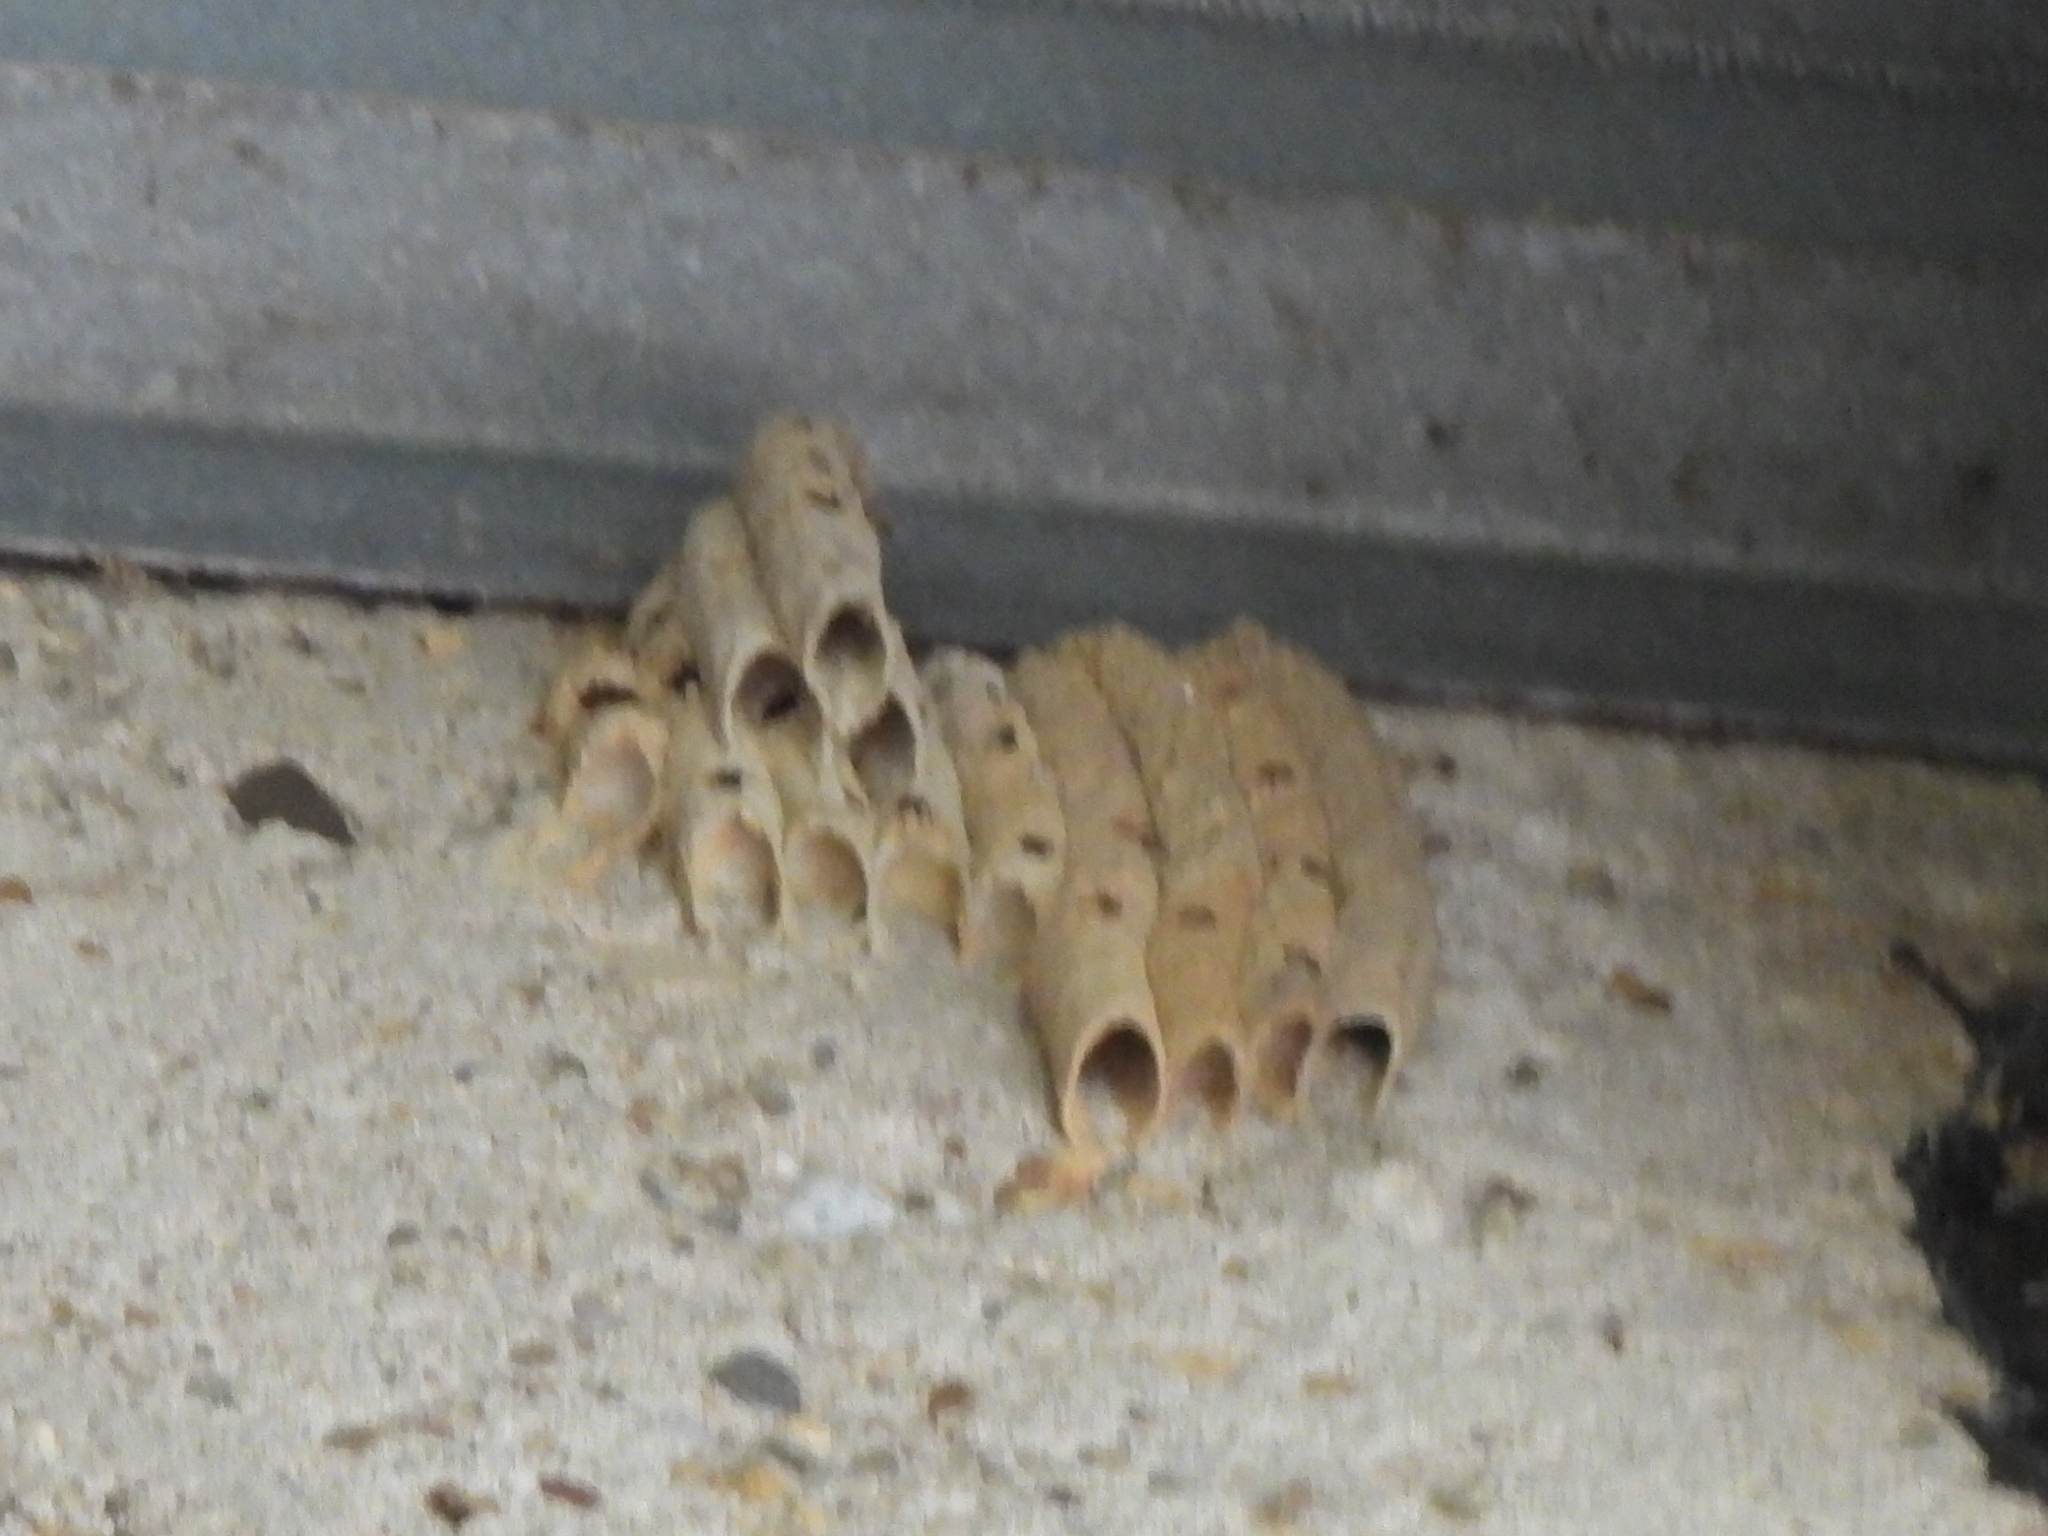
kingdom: Animalia
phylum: Arthropoda
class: Insecta
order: Hymenoptera
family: Crabronidae
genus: Trypoxylon
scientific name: Trypoxylon politum
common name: Organ-pipe mud-dauber wasp
